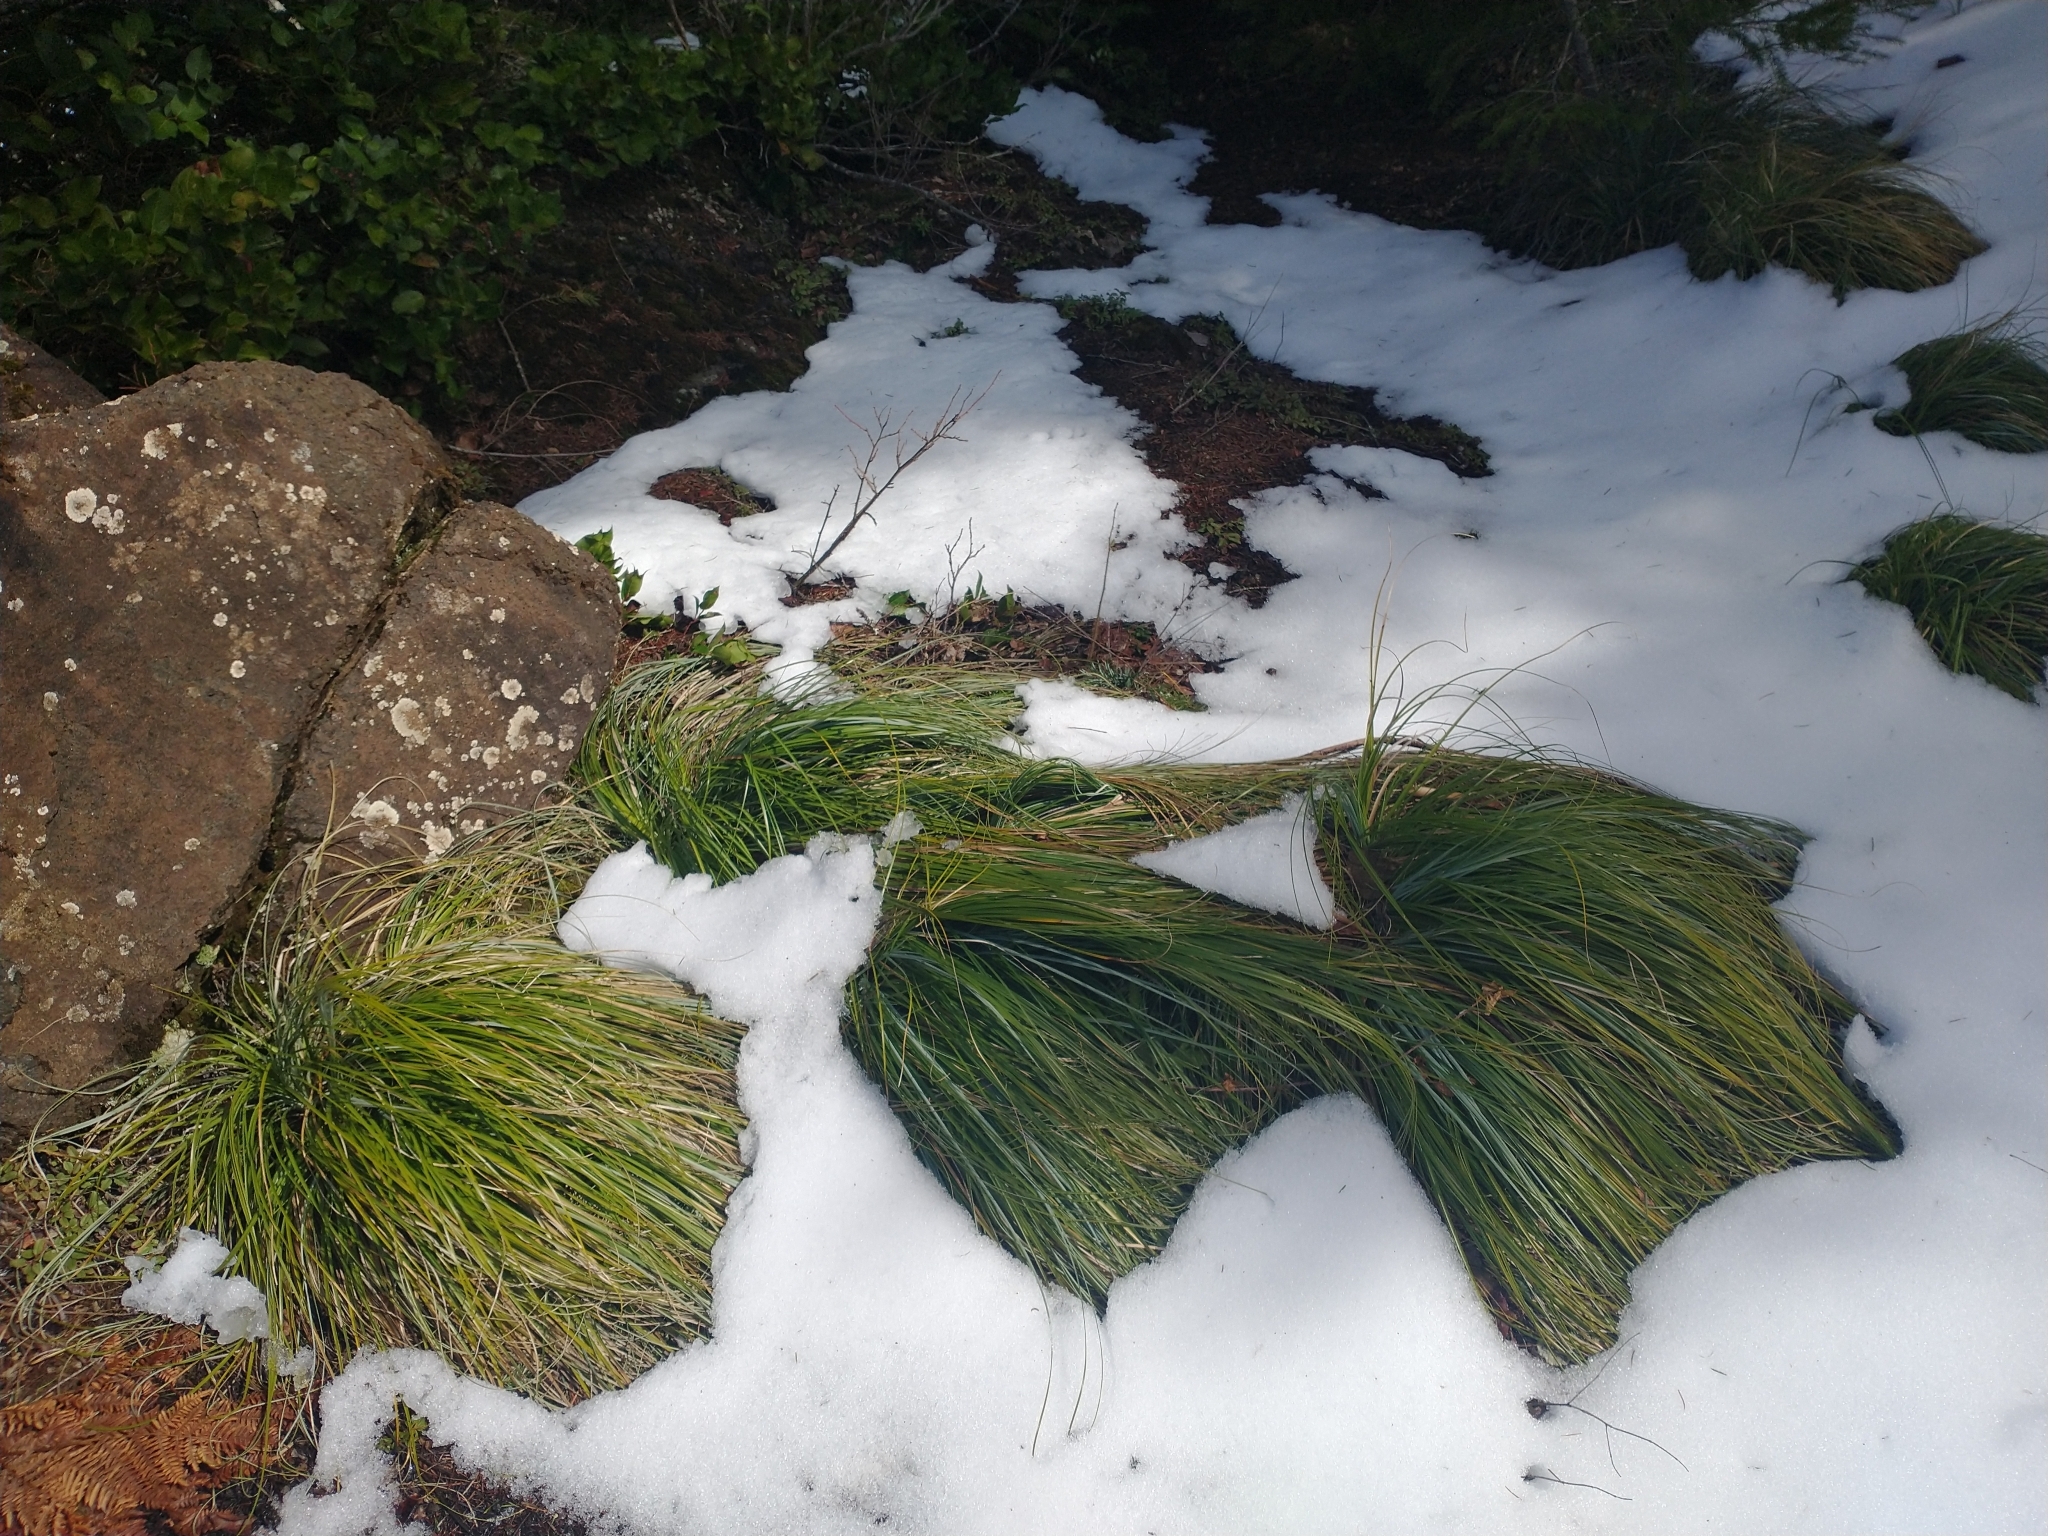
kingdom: Plantae
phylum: Tracheophyta
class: Liliopsida
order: Liliales
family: Melanthiaceae
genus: Xerophyllum
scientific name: Xerophyllum tenax
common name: Bear-grass
